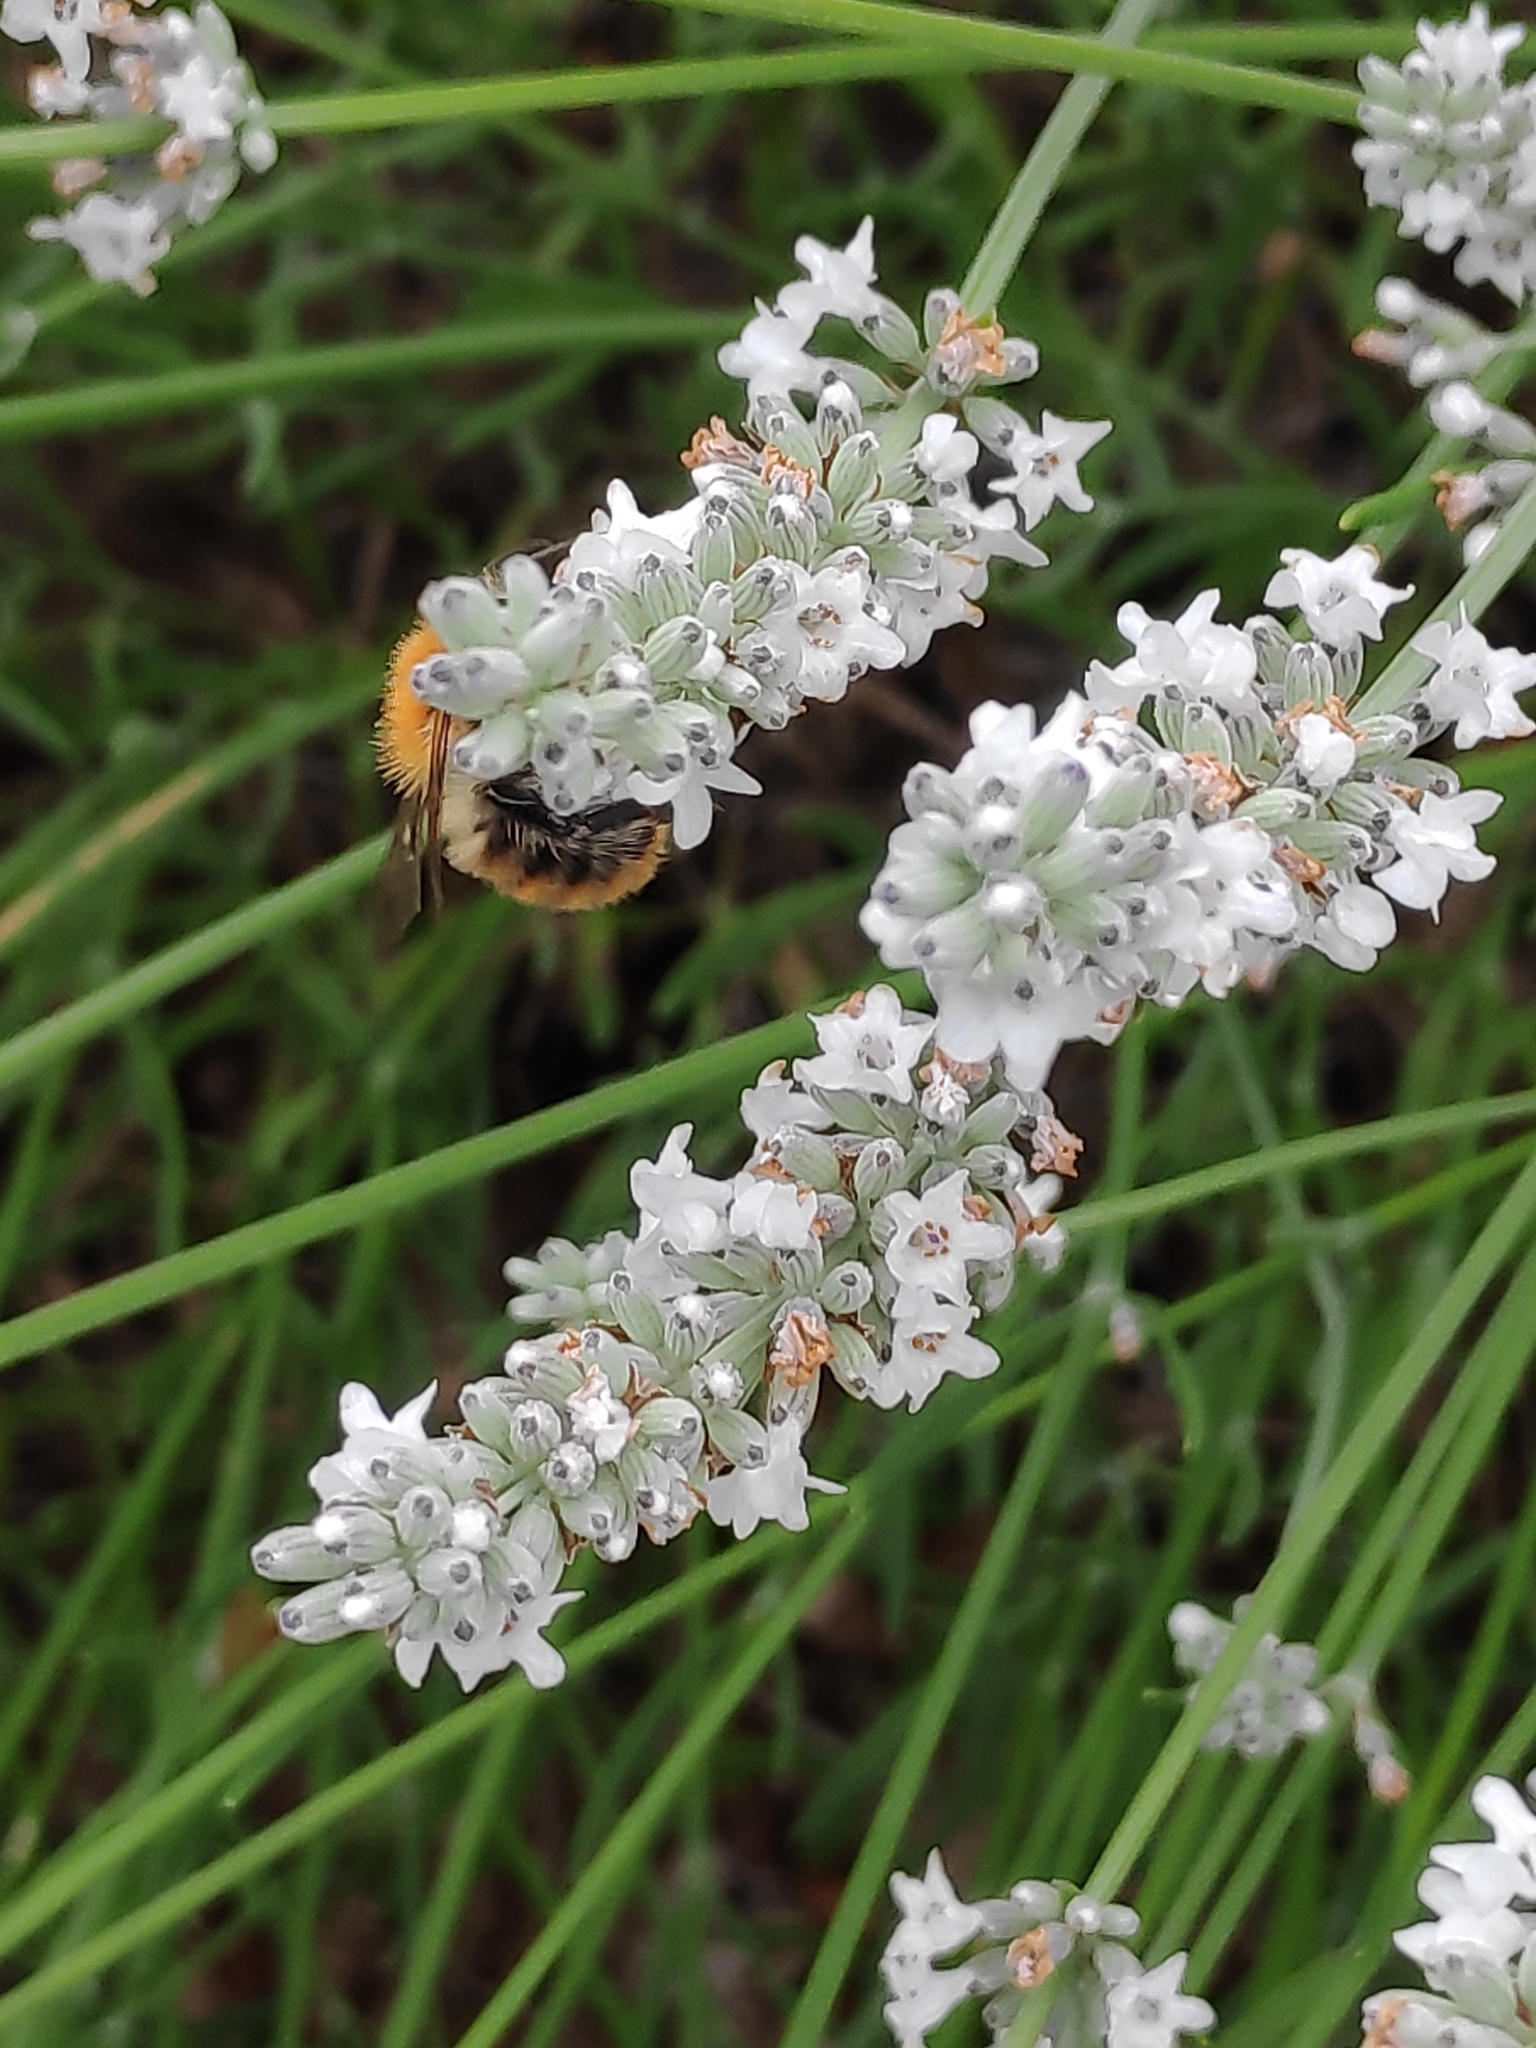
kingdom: Animalia
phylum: Arthropoda
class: Insecta
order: Hymenoptera
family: Apidae
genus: Bombus
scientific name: Bombus pascuorum
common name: Common carder bee
